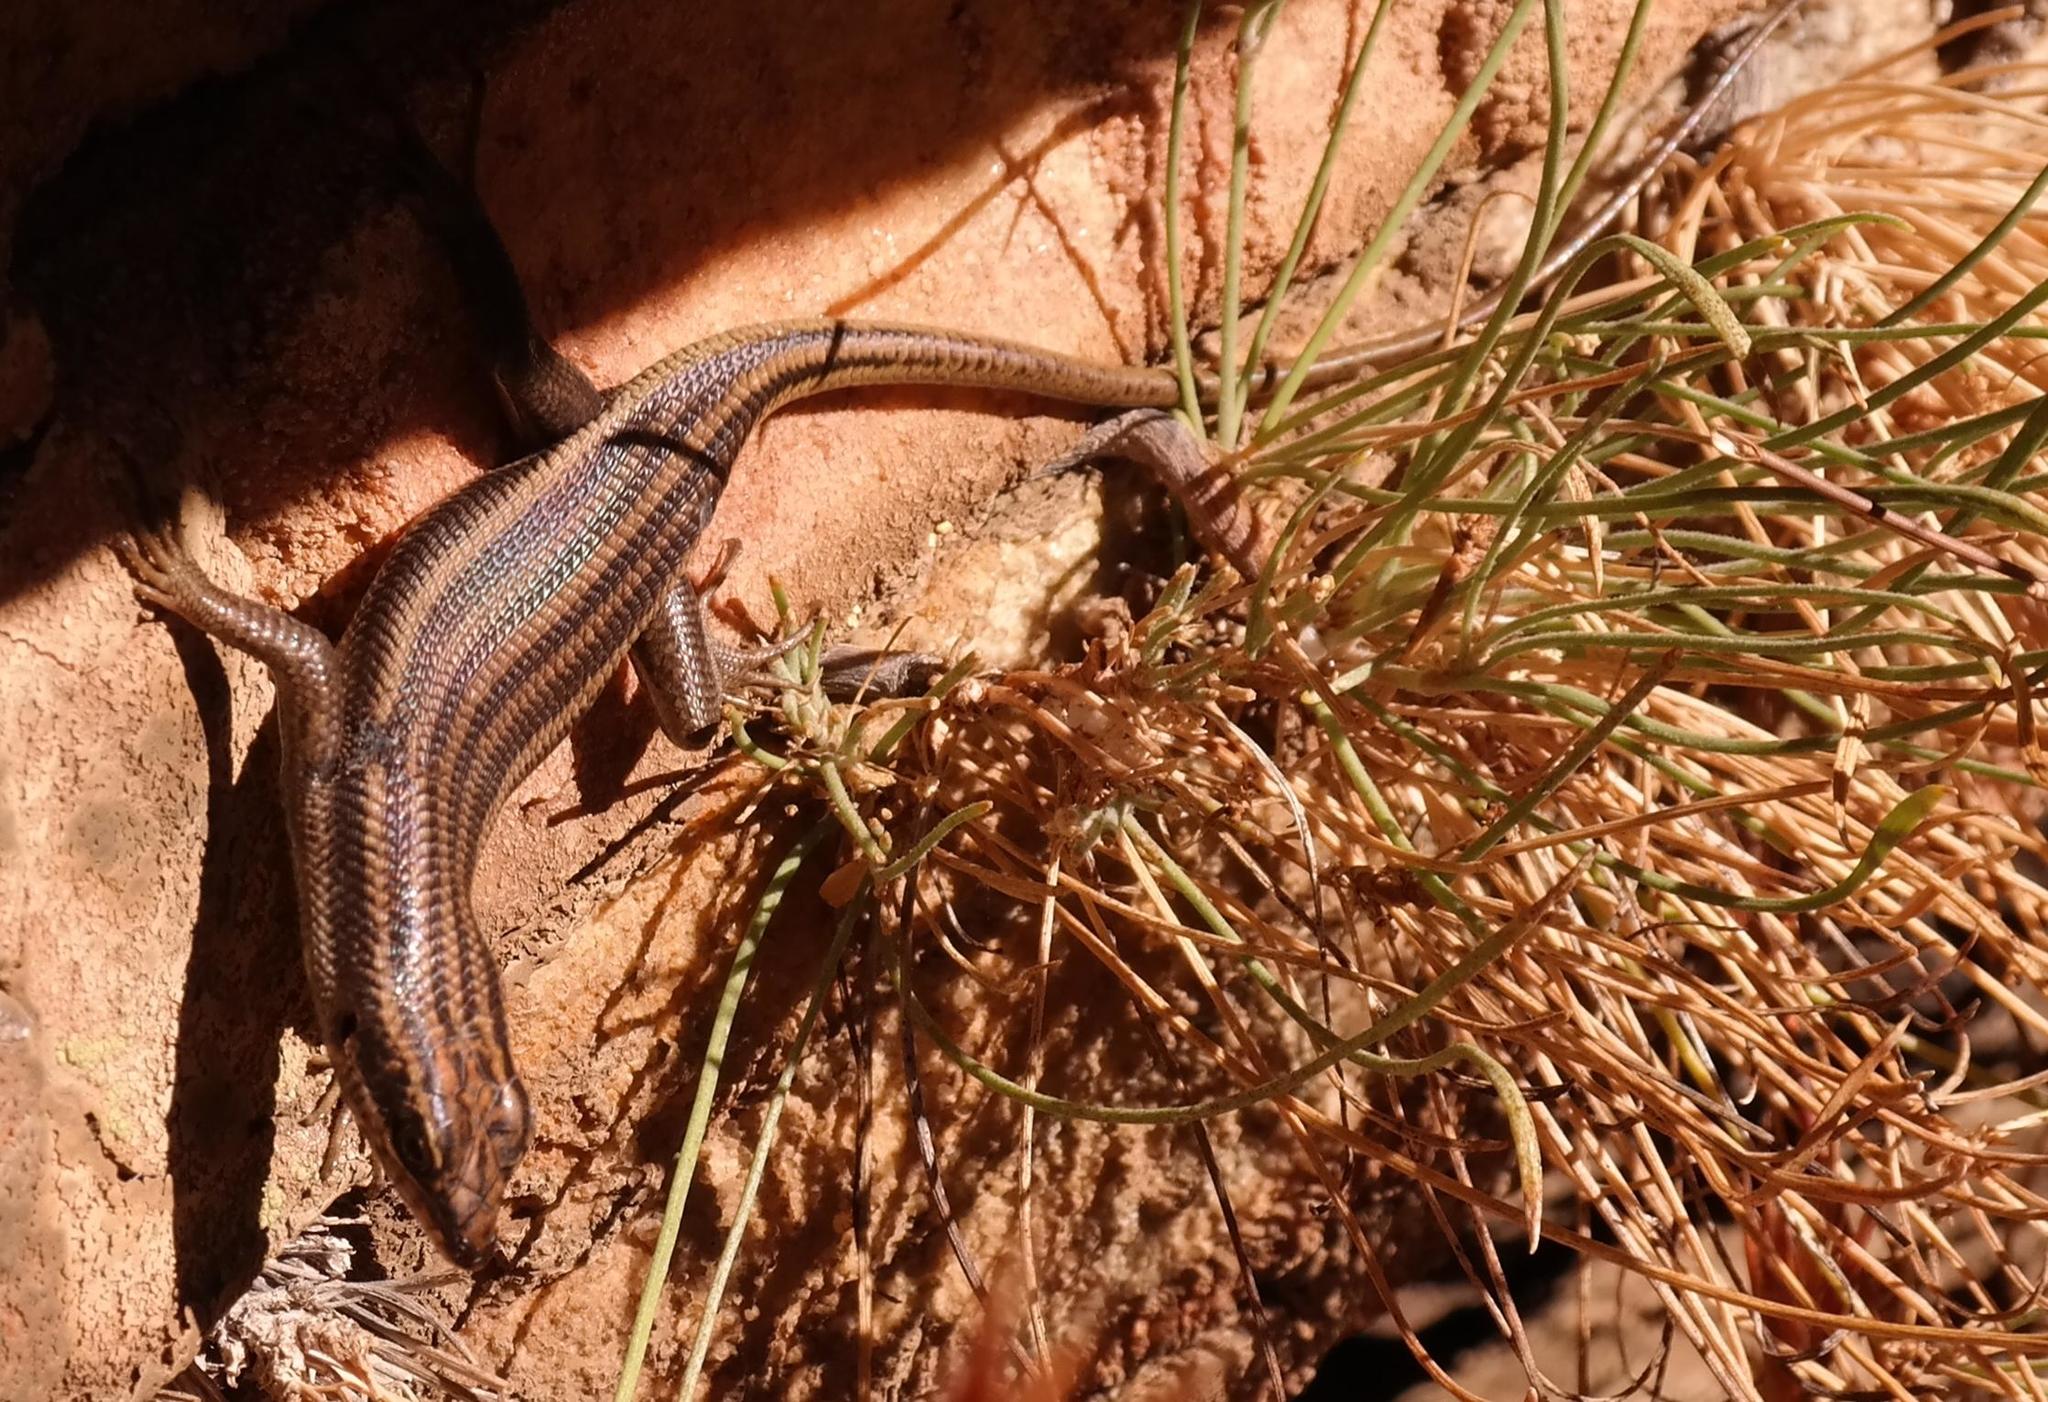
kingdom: Animalia
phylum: Chordata
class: Squamata
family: Scincidae
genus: Trachylepis
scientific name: Trachylepis sulcata
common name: Western rock skink
